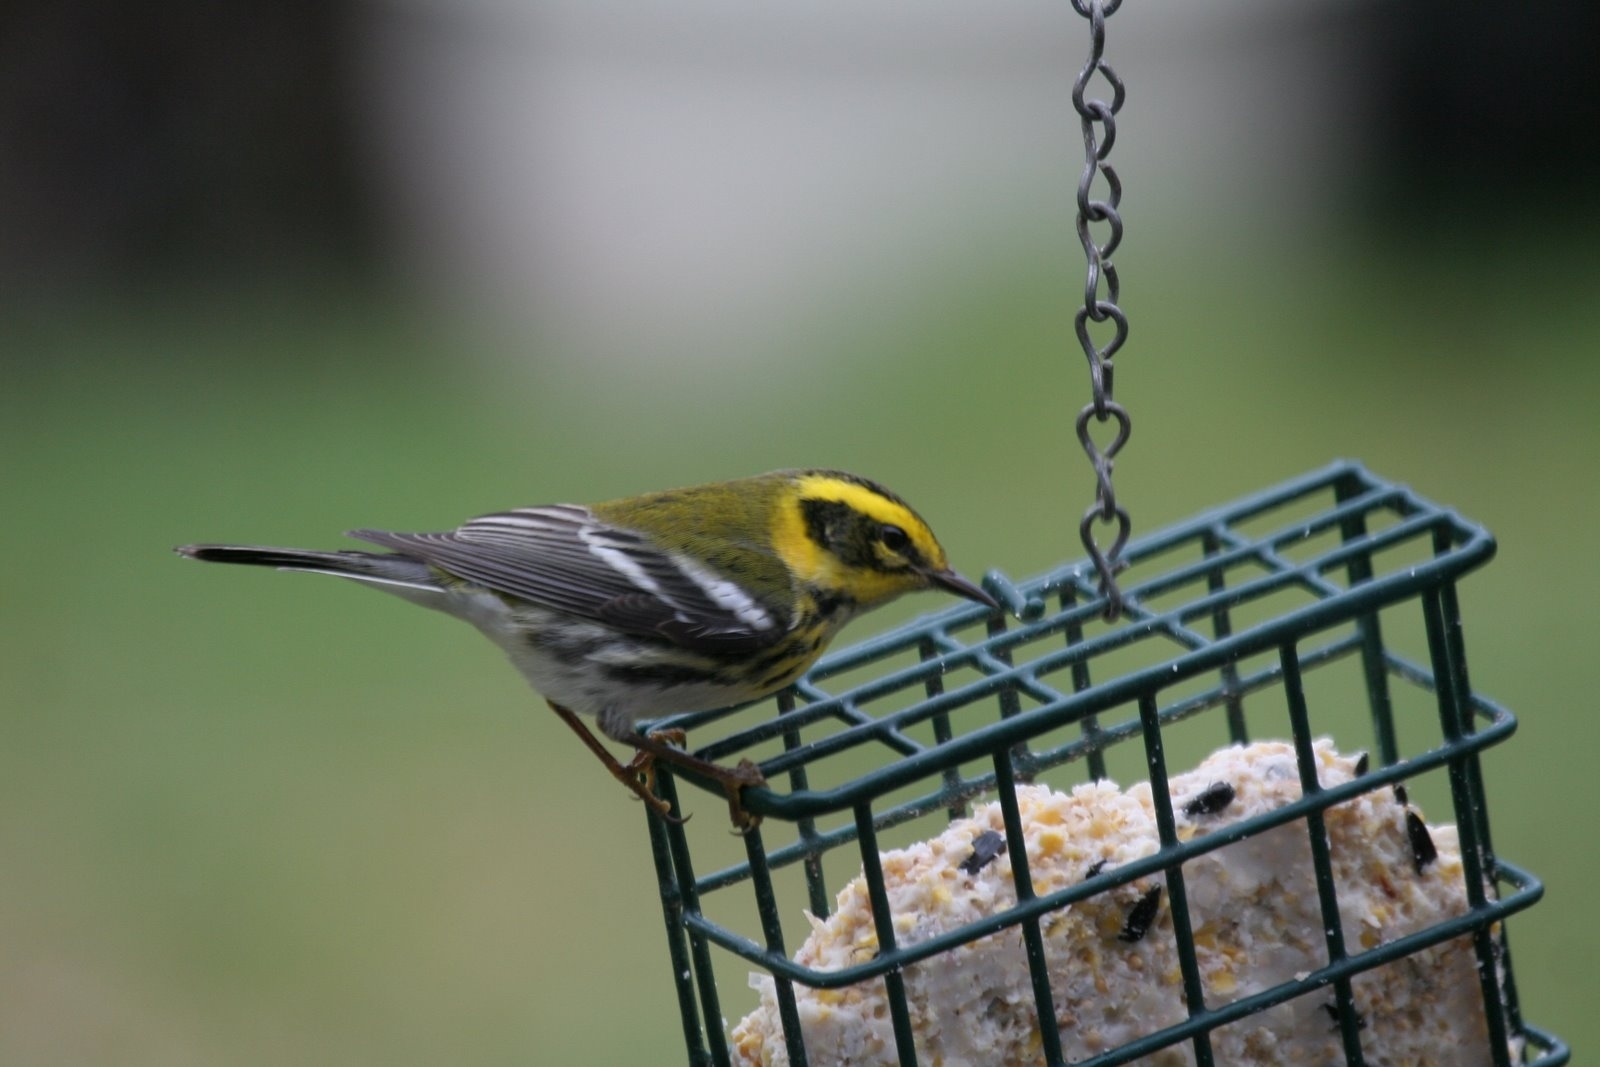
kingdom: Animalia
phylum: Chordata
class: Aves
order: Passeriformes
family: Parulidae
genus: Setophaga
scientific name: Setophaga townsendi
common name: Townsend's warbler
